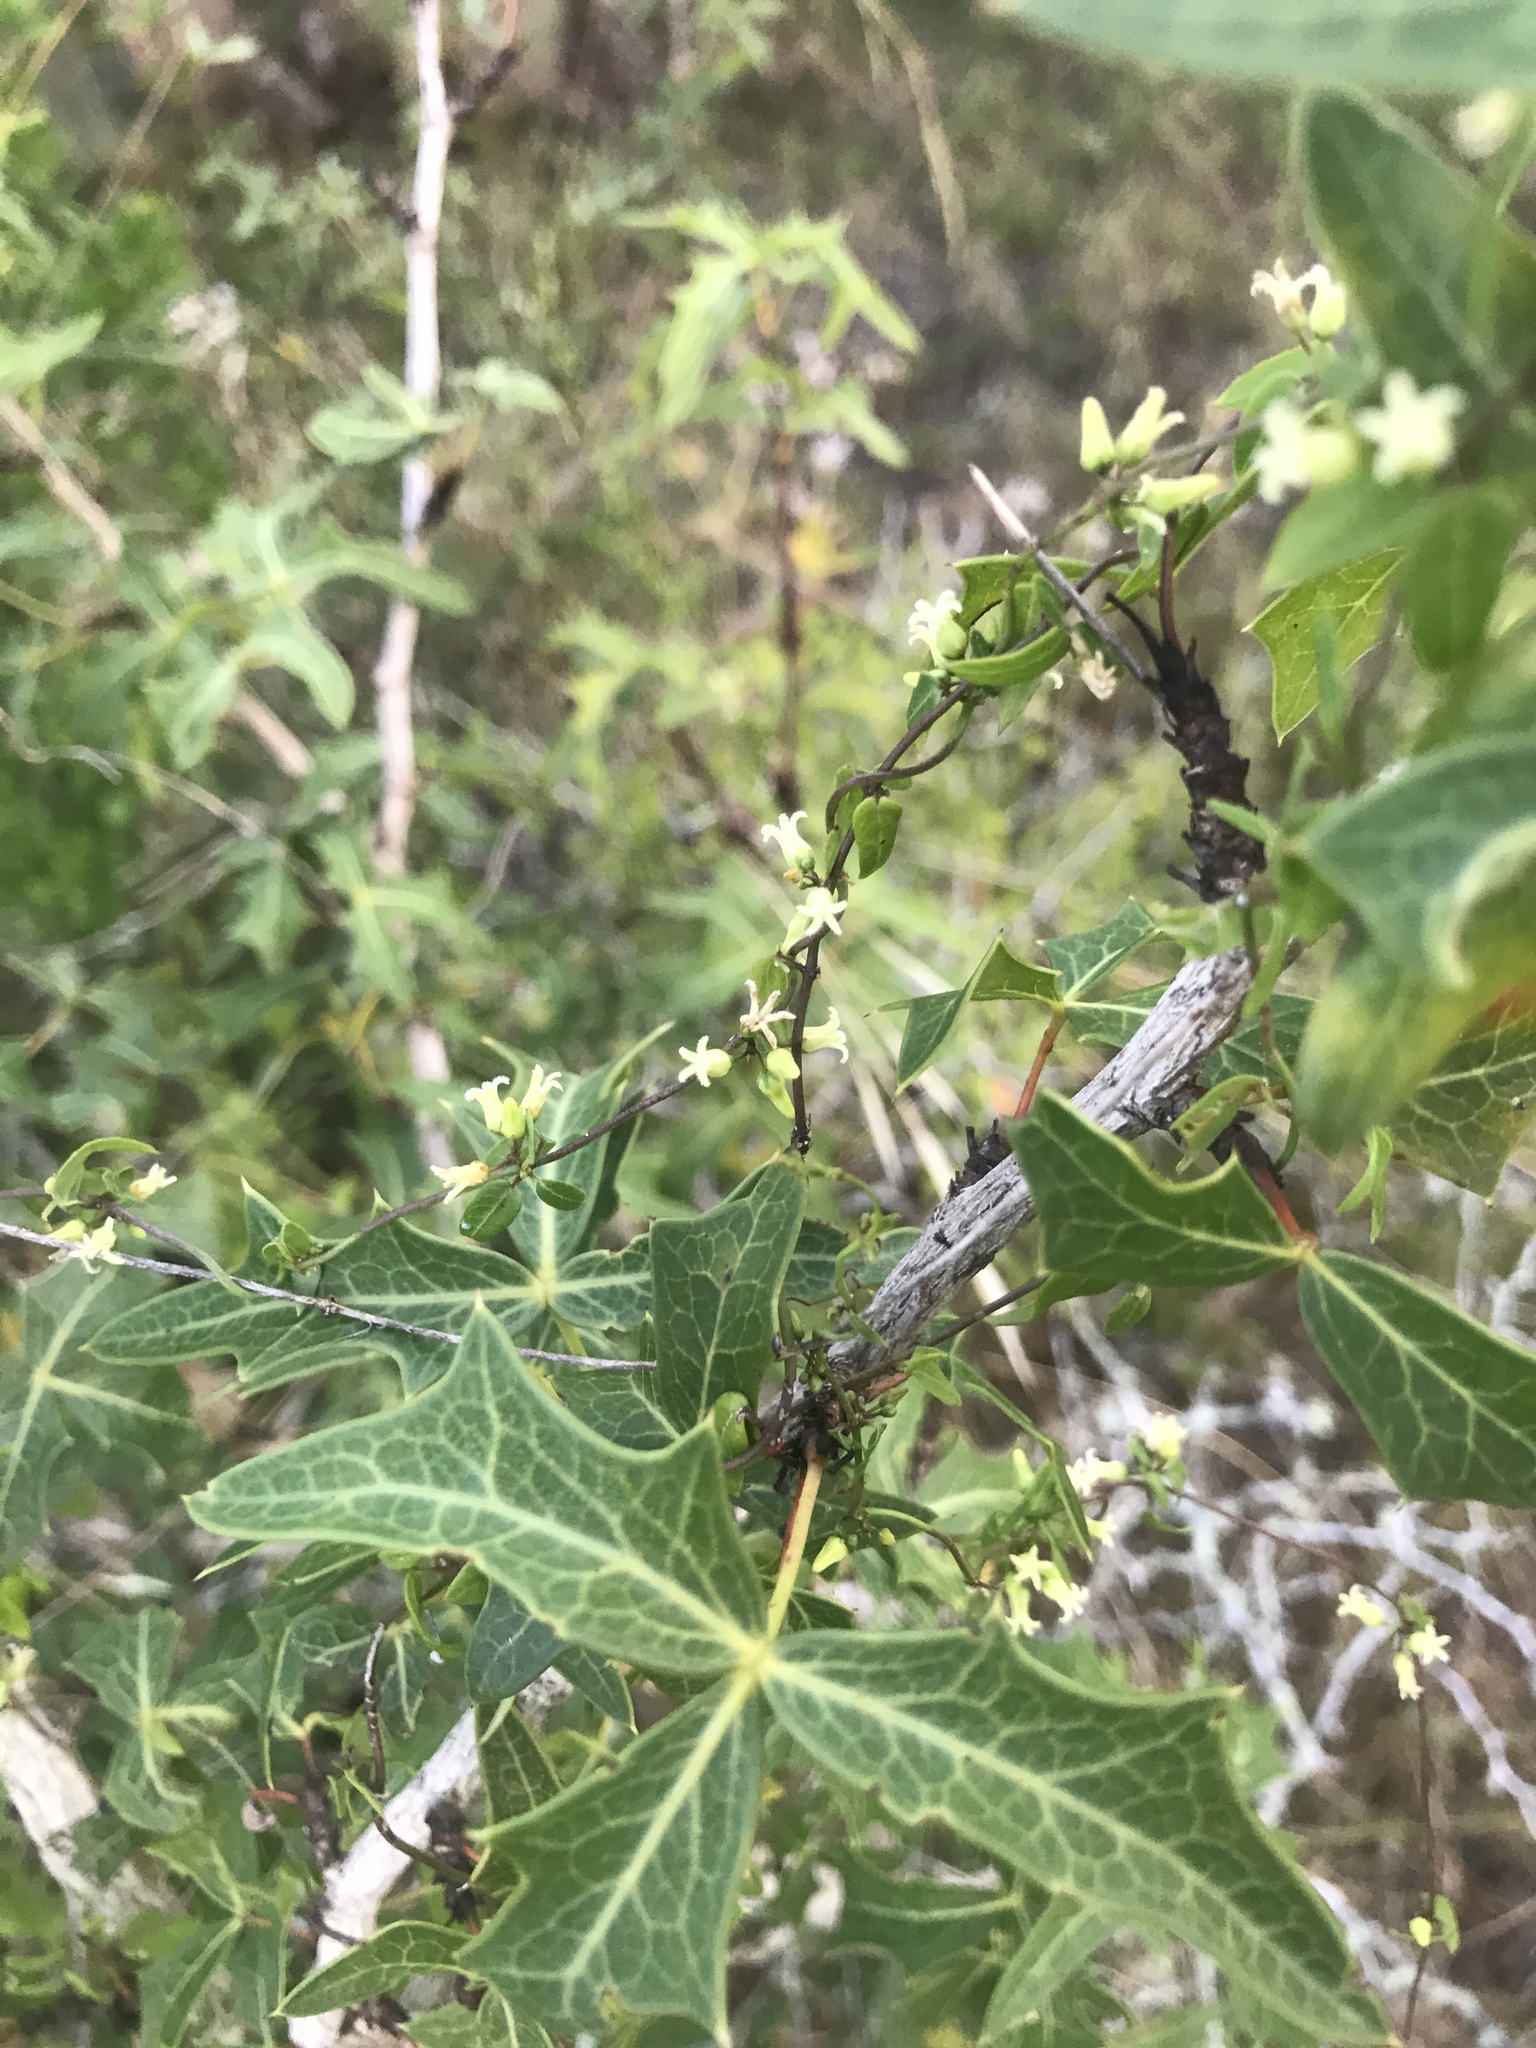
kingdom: Plantae
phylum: Tracheophyta
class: Magnoliopsida
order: Ranunculales
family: Berberidaceae
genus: Alloberberis
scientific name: Alloberberis trifoliolata
